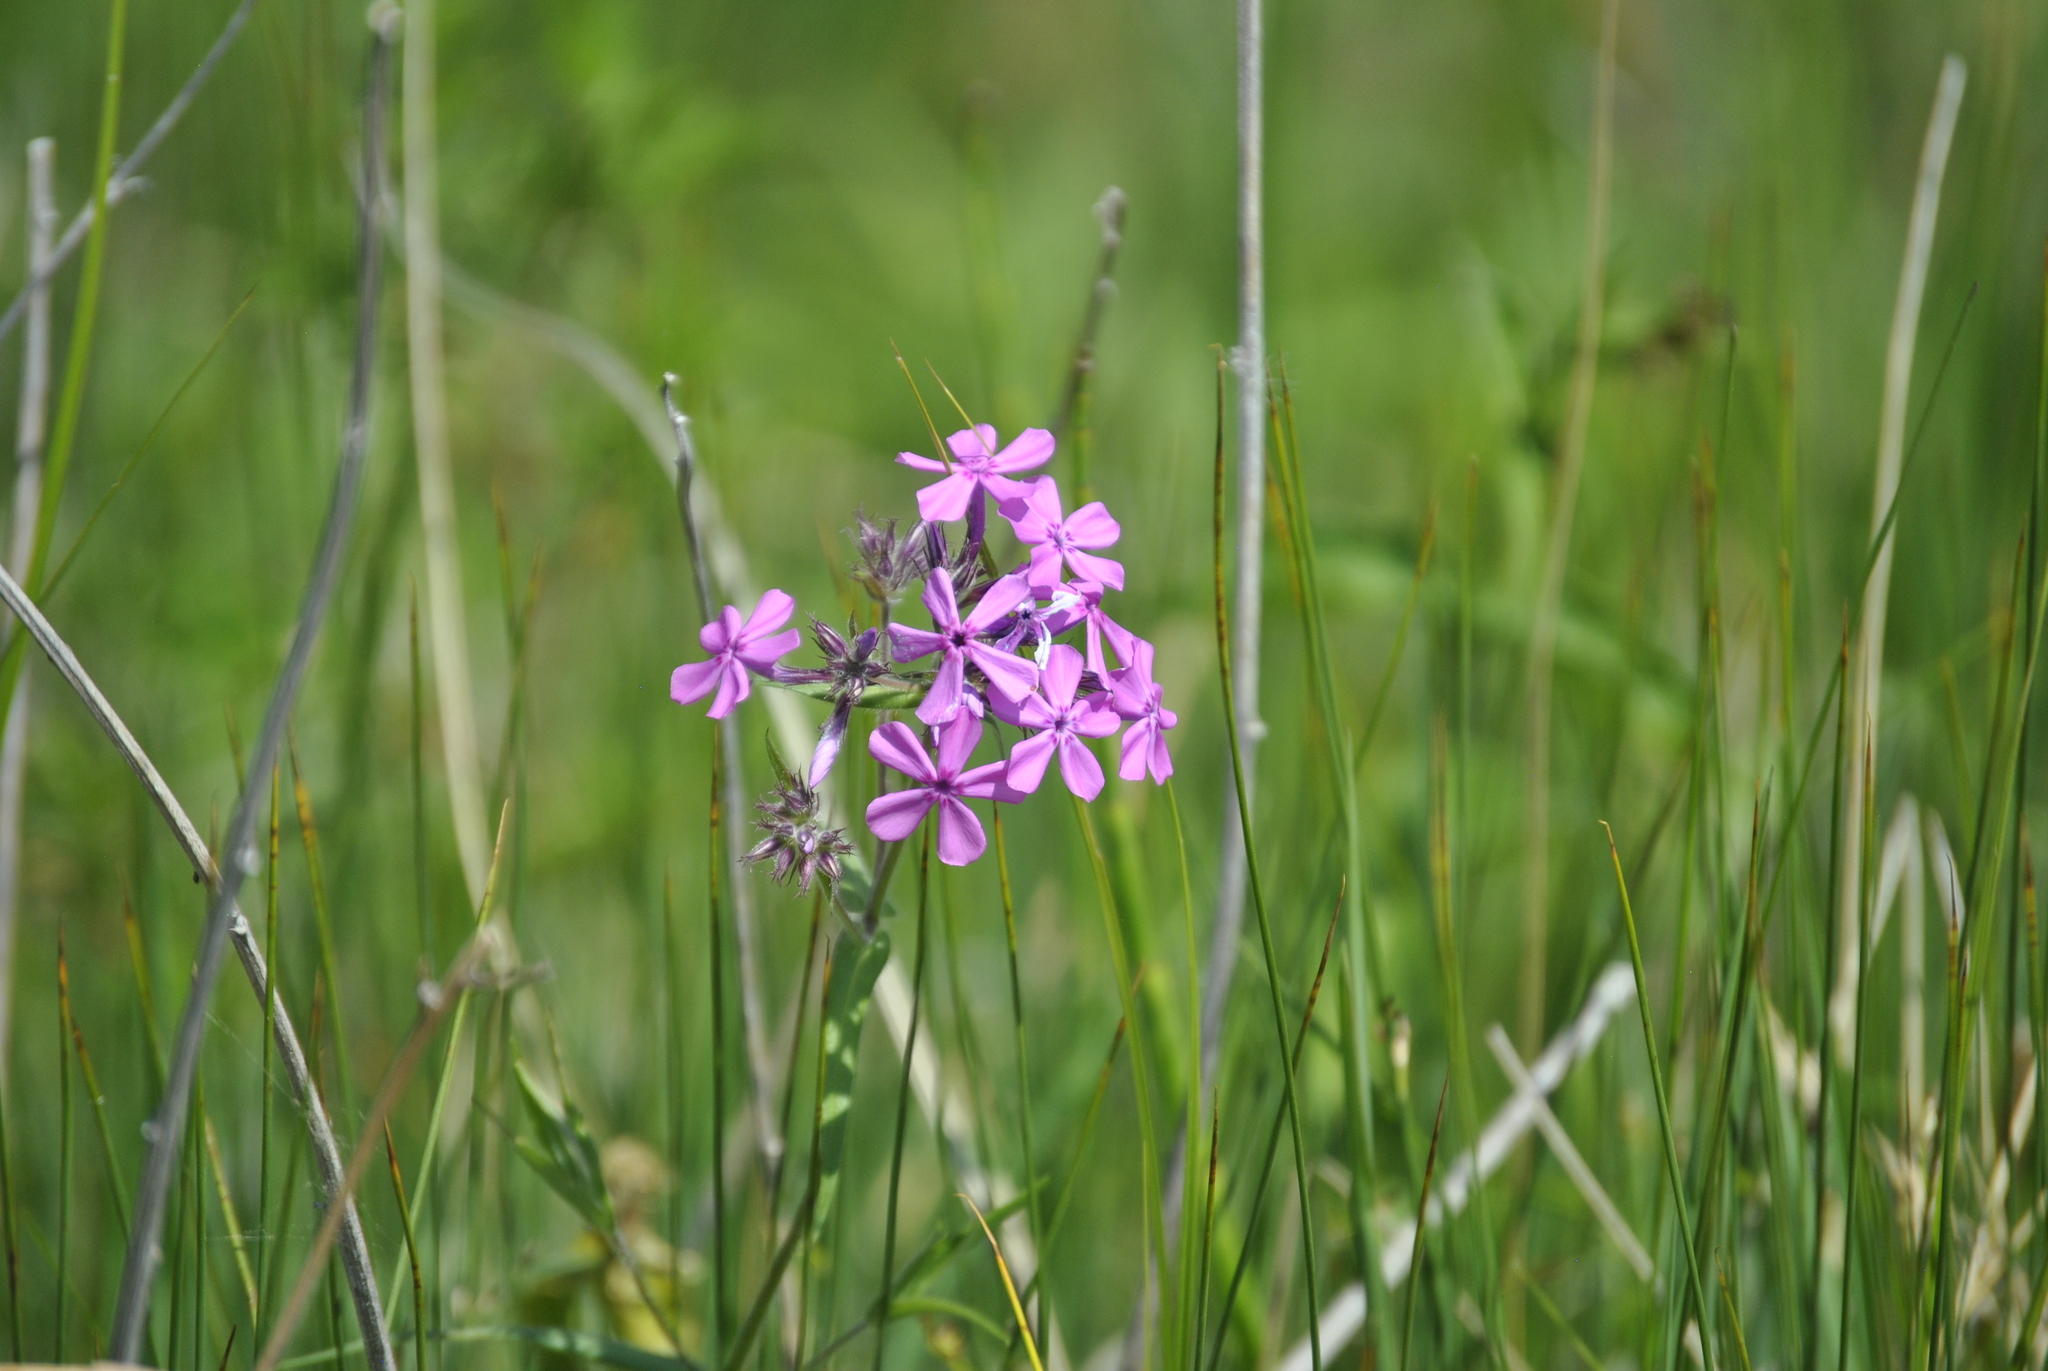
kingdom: Plantae
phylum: Tracheophyta
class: Magnoliopsida
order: Ericales
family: Polemoniaceae
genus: Phlox
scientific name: Phlox pilosa
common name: Prairie phlox
